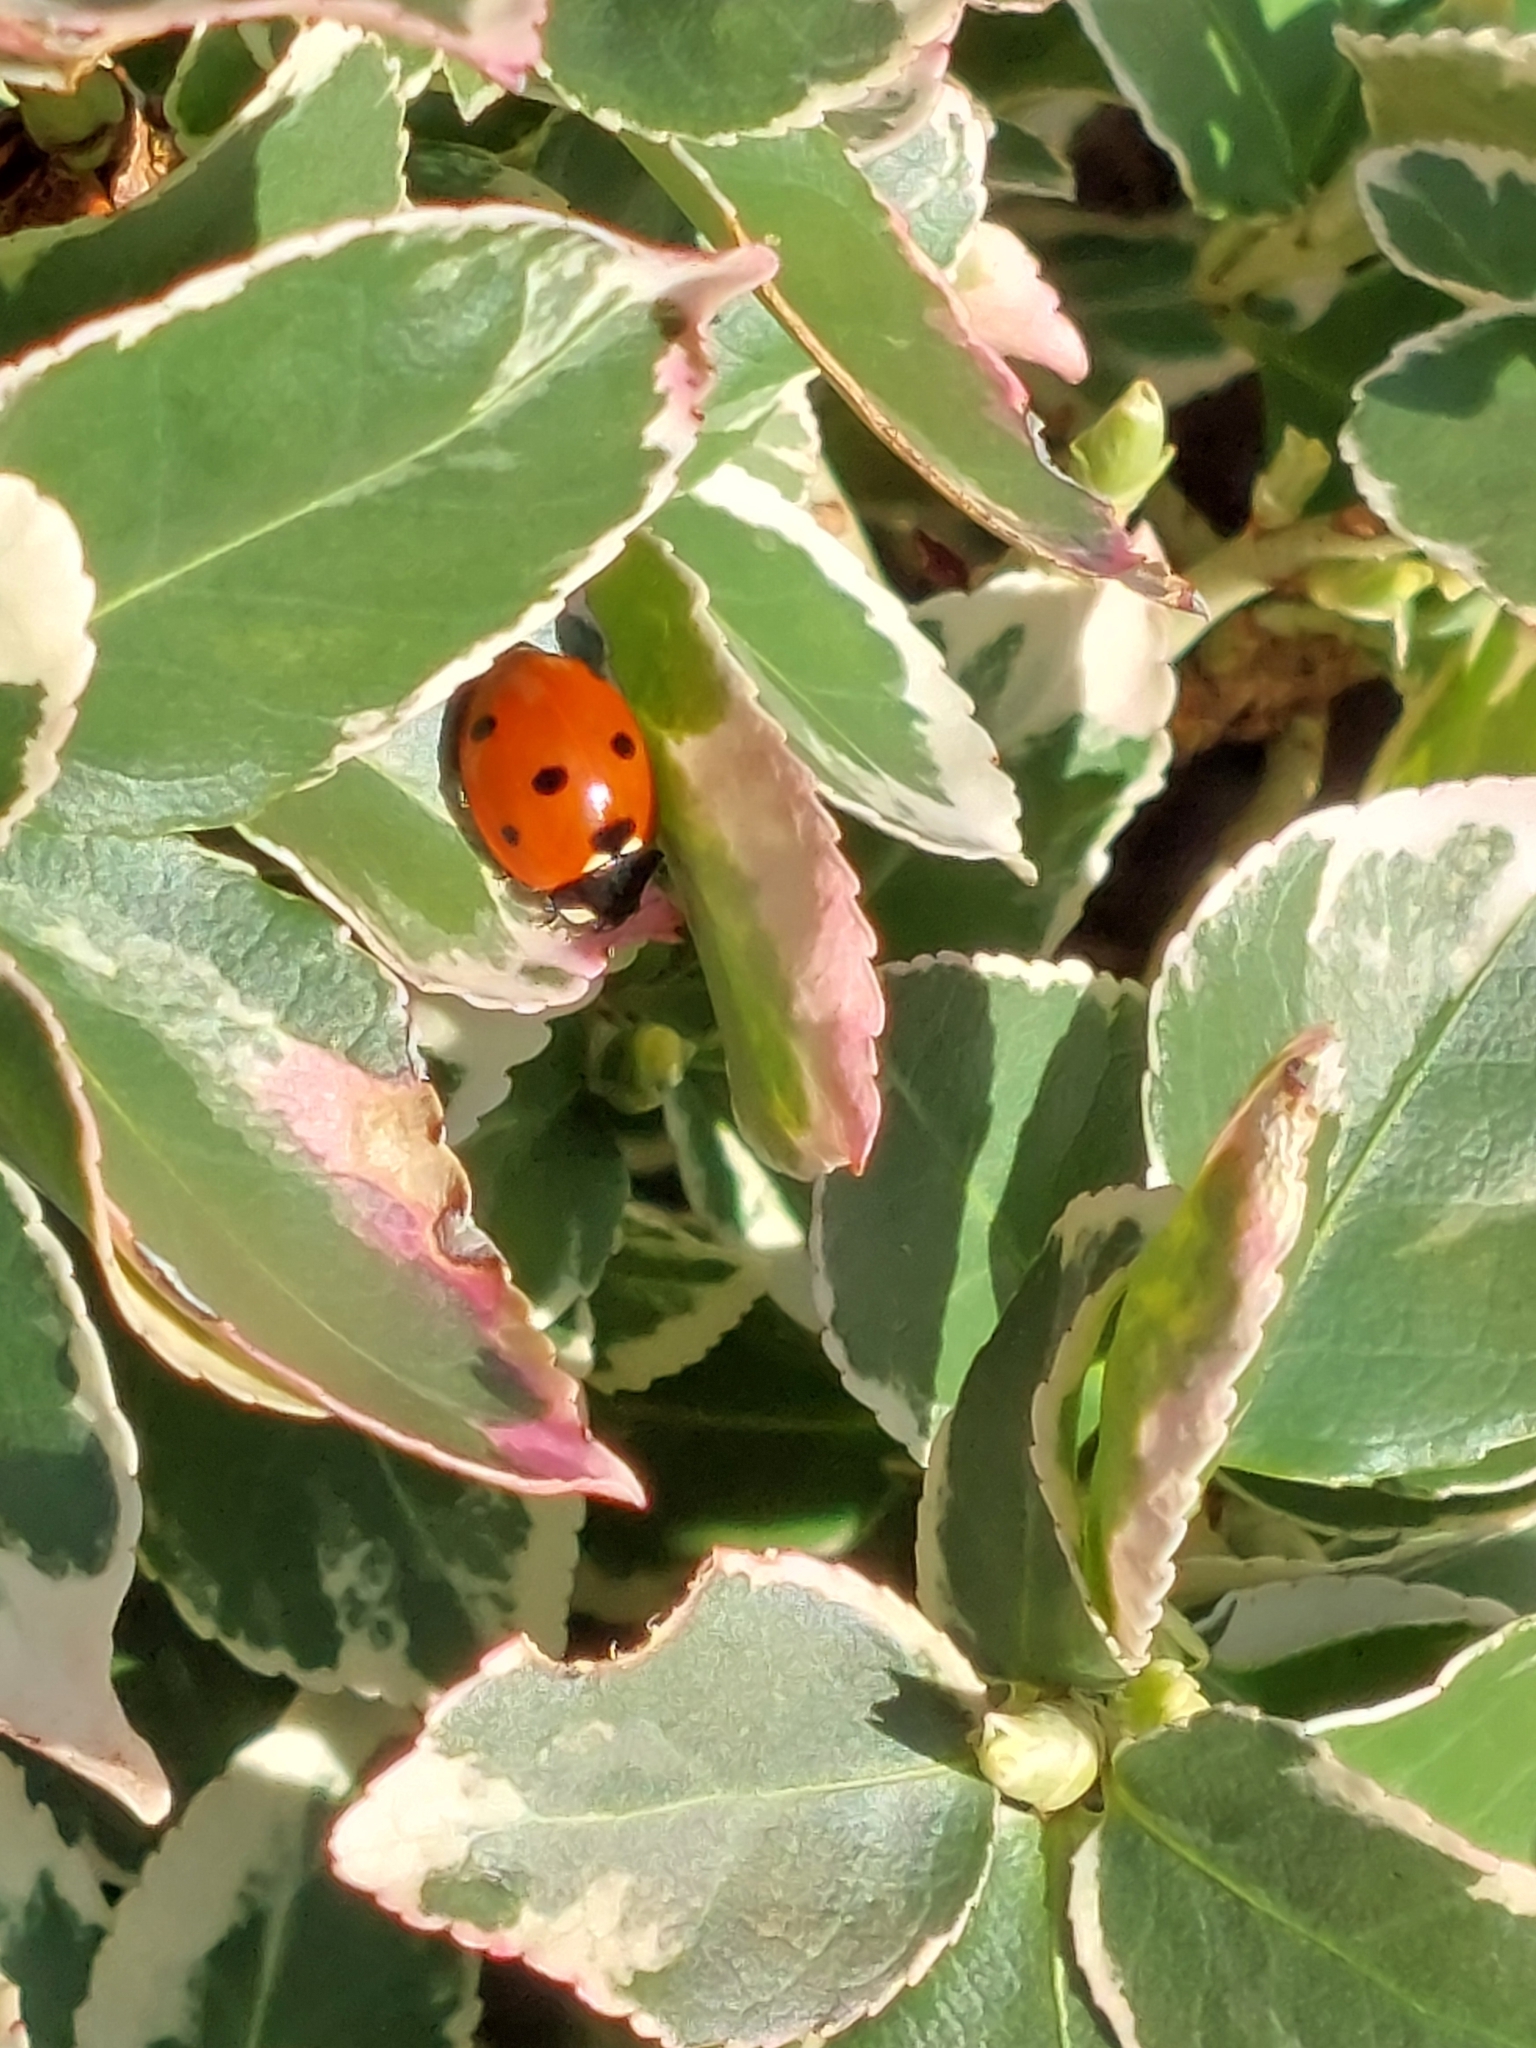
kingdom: Animalia
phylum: Arthropoda
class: Insecta
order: Coleoptera
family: Coccinellidae
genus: Coccinella
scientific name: Coccinella septempunctata
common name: Sevenspotted lady beetle
